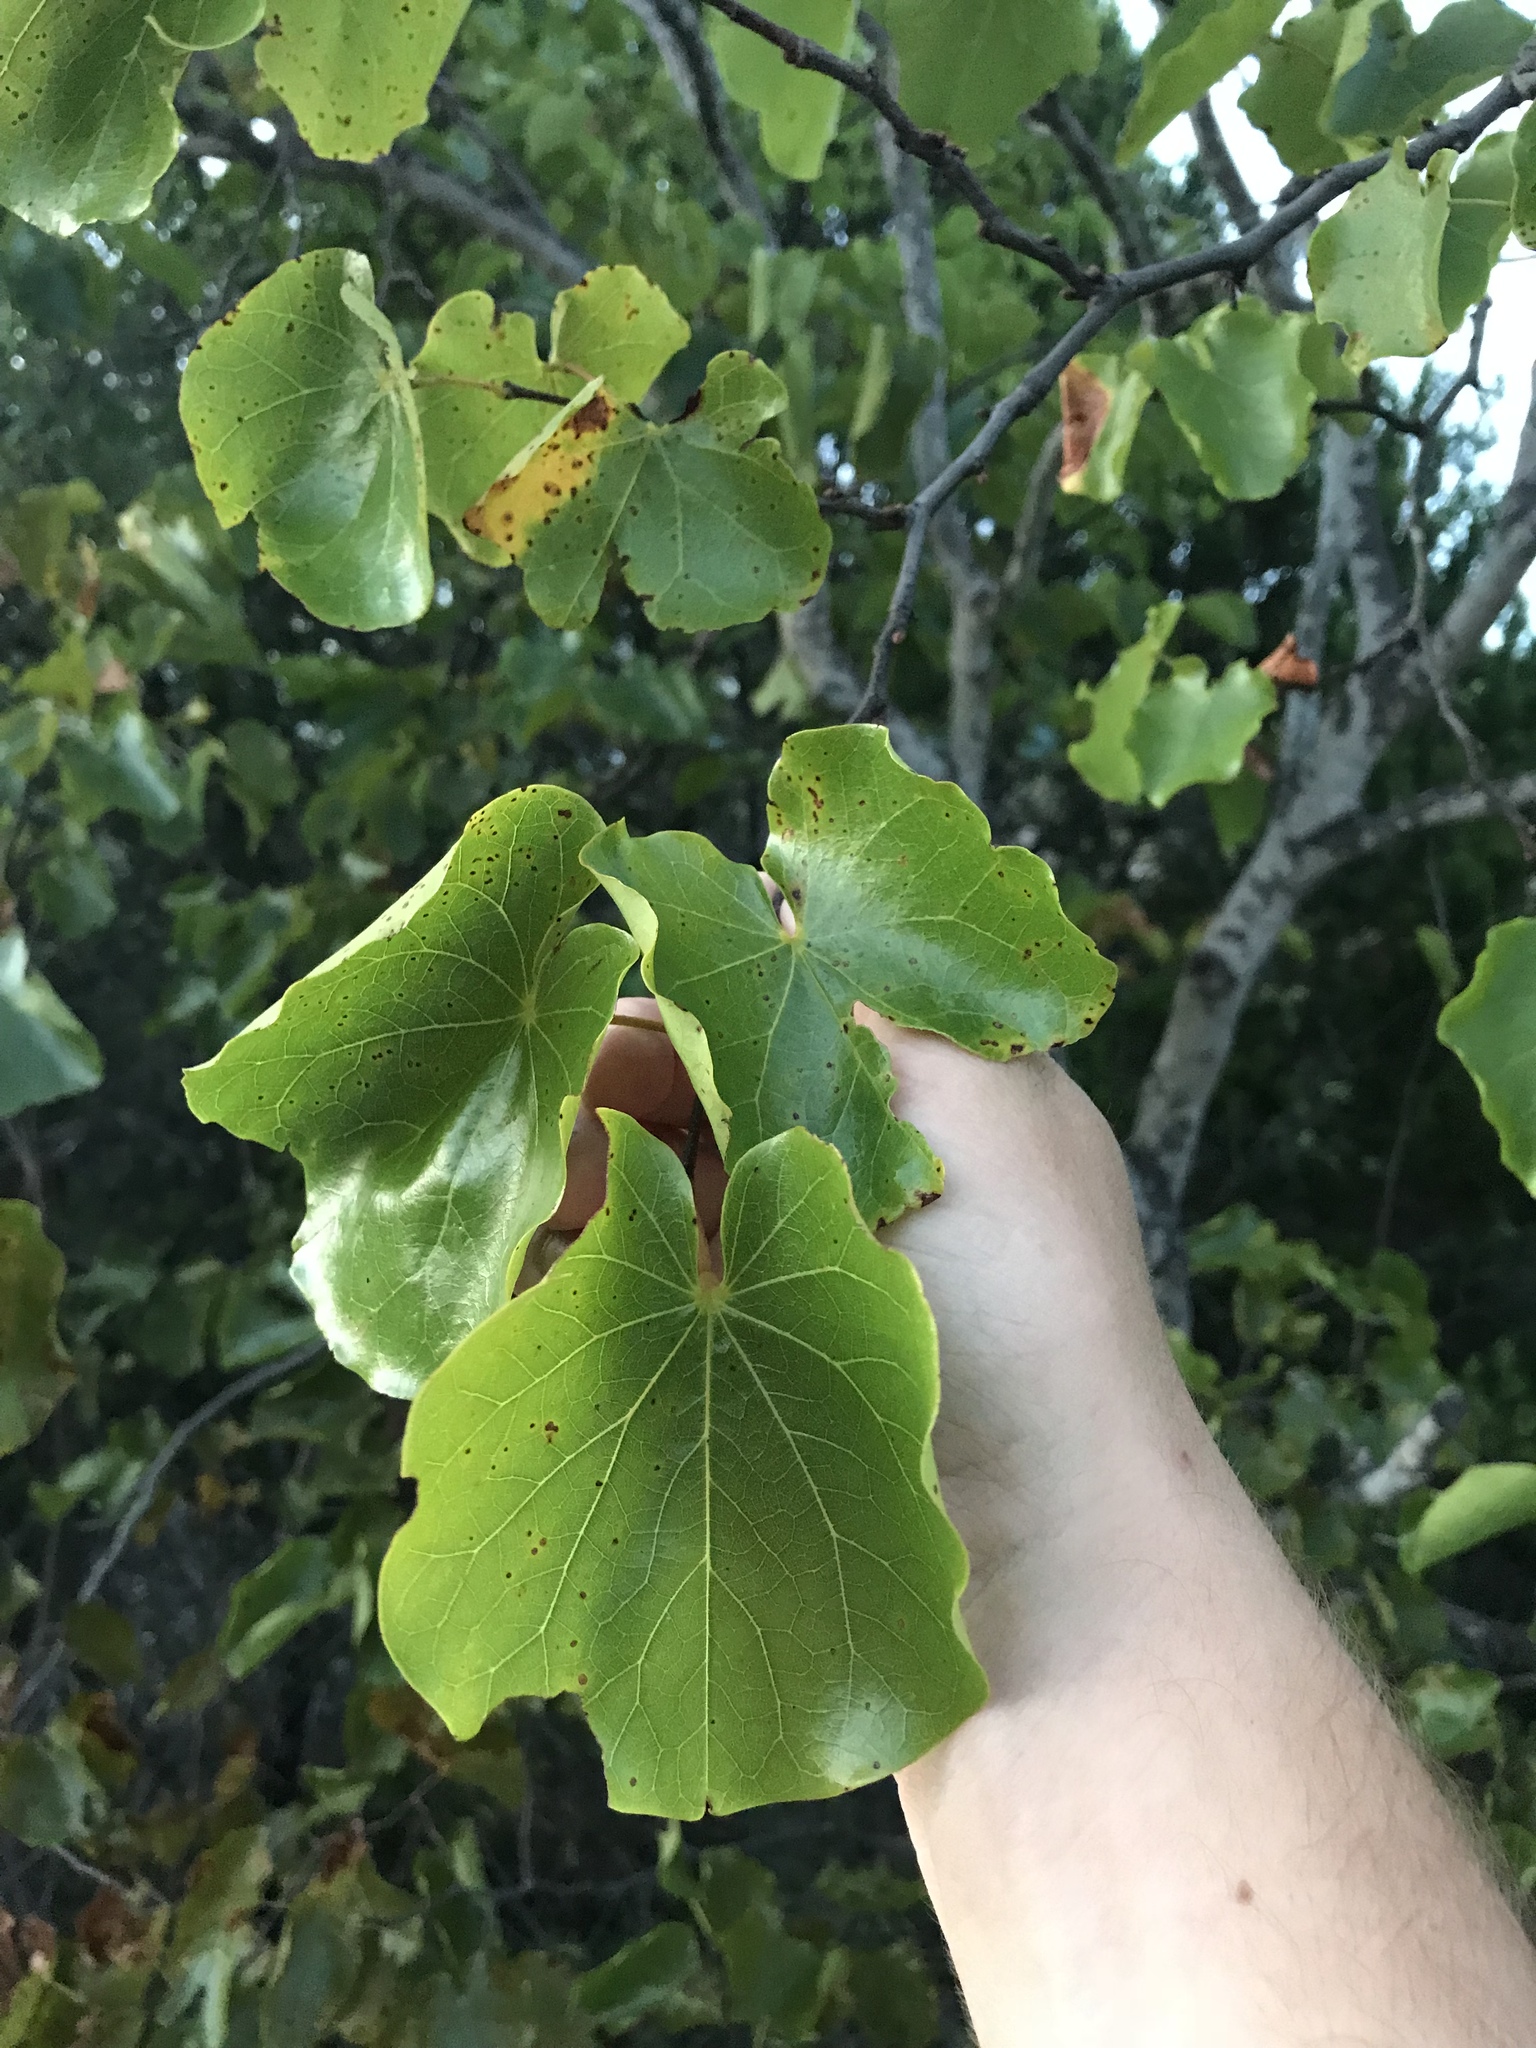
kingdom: Plantae
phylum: Tracheophyta
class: Magnoliopsida
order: Fabales
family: Fabaceae
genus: Cercis
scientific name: Cercis canadensis
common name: Eastern redbud
